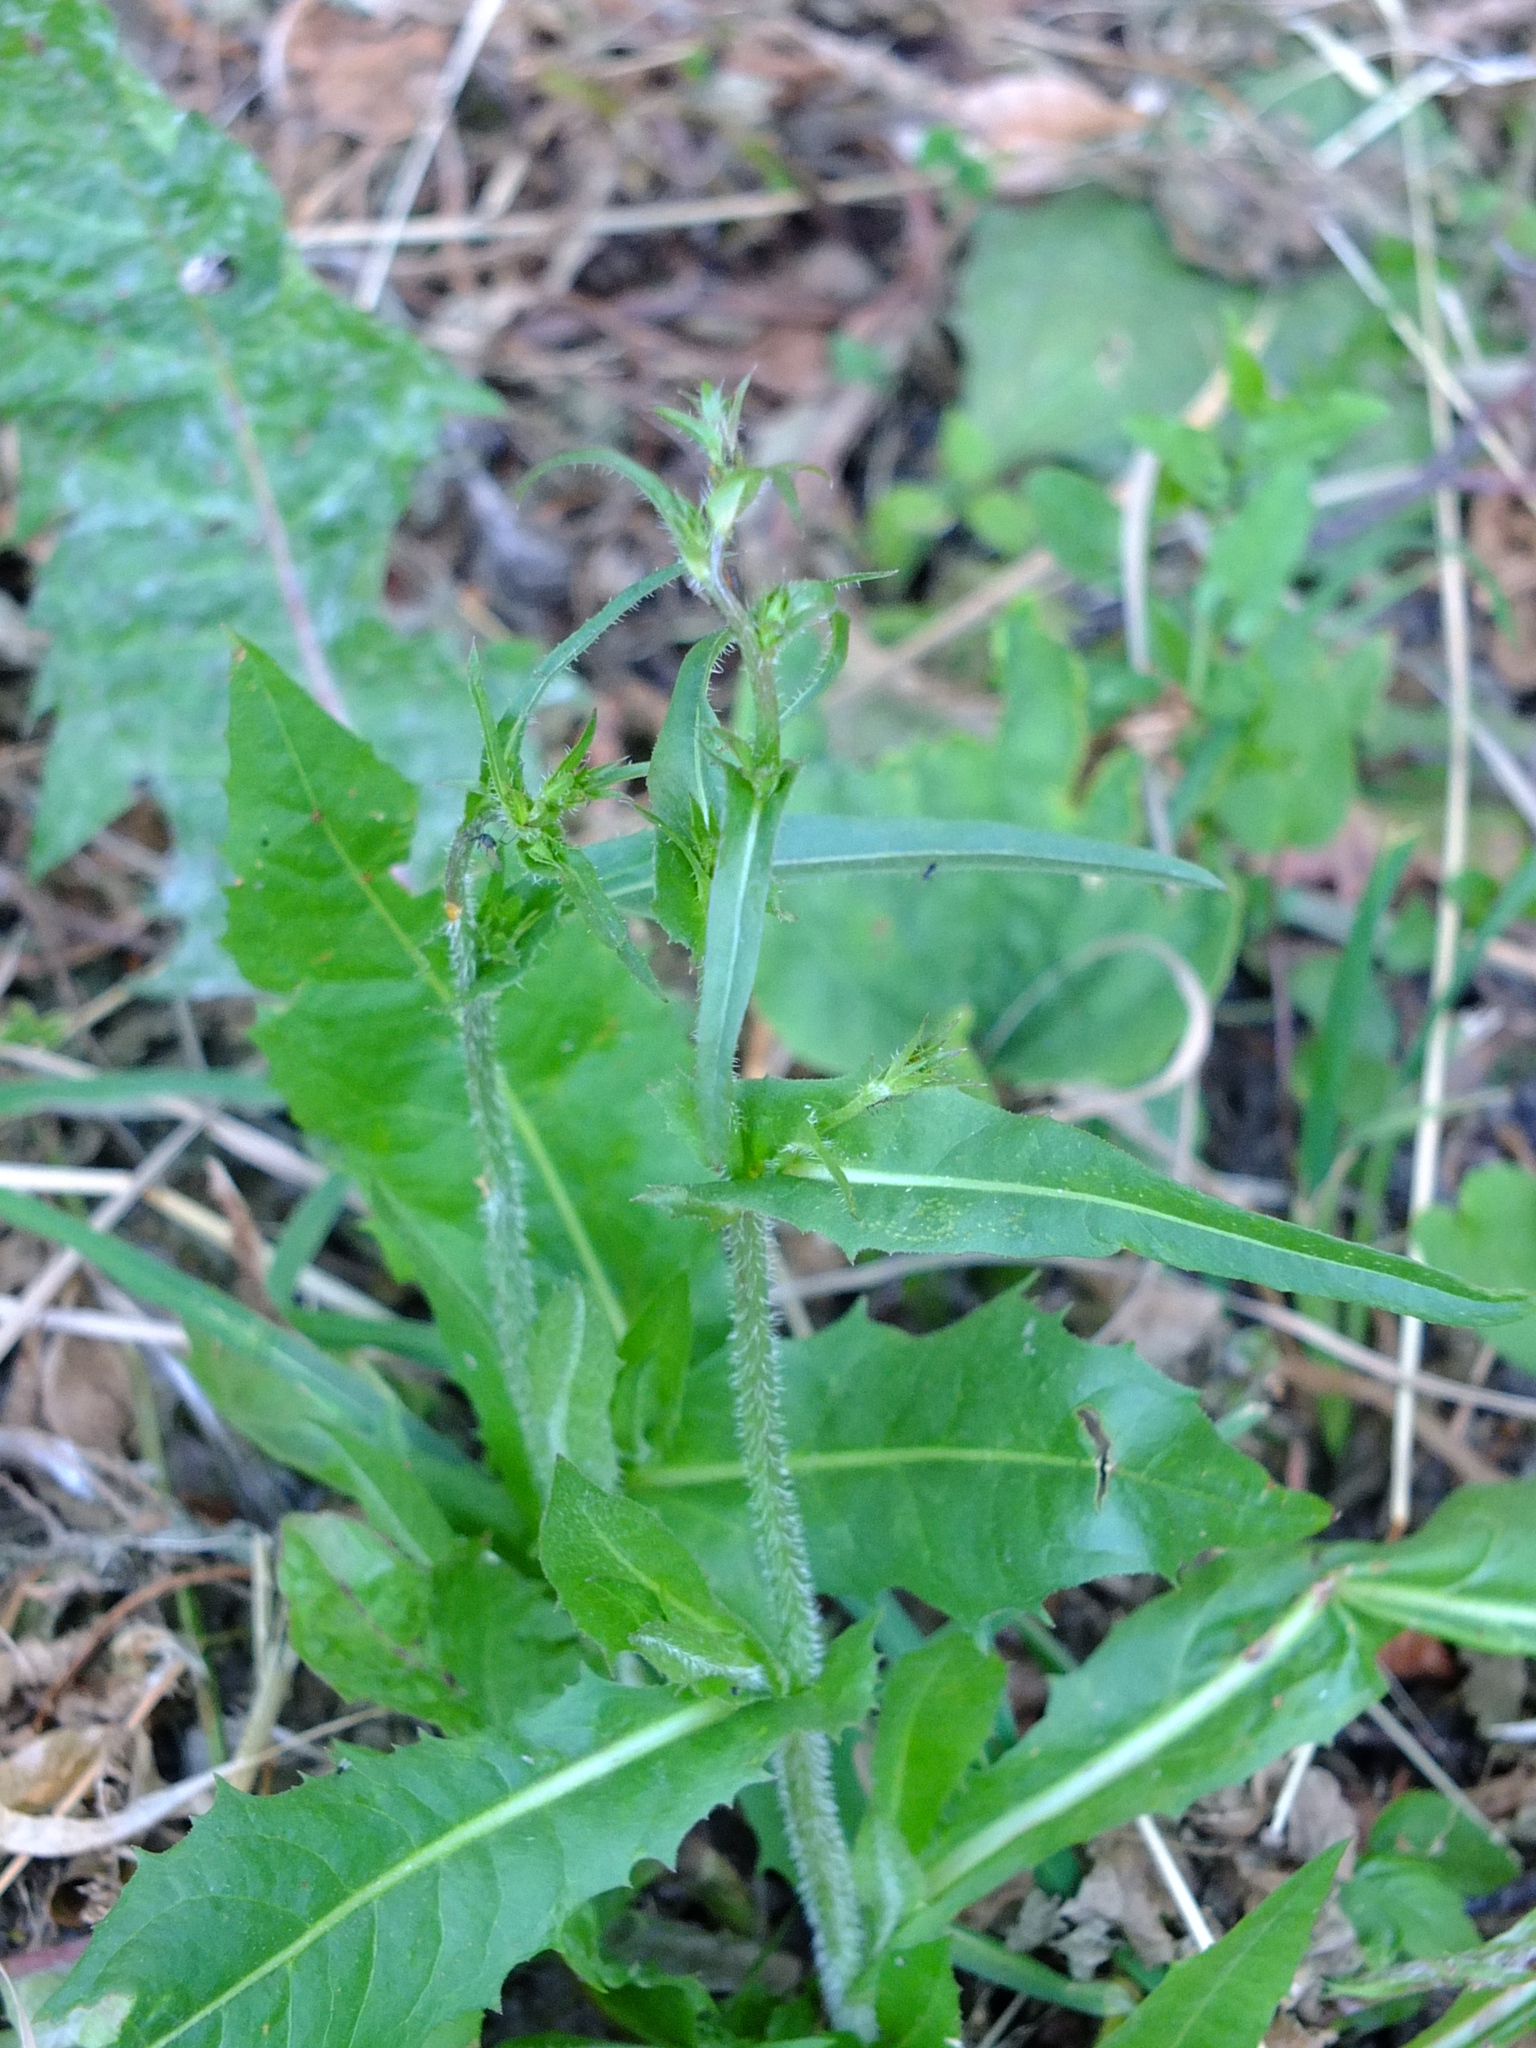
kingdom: Plantae
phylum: Tracheophyta
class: Magnoliopsida
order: Asterales
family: Asteraceae
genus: Cichorium
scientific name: Cichorium intybus
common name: Chicory
